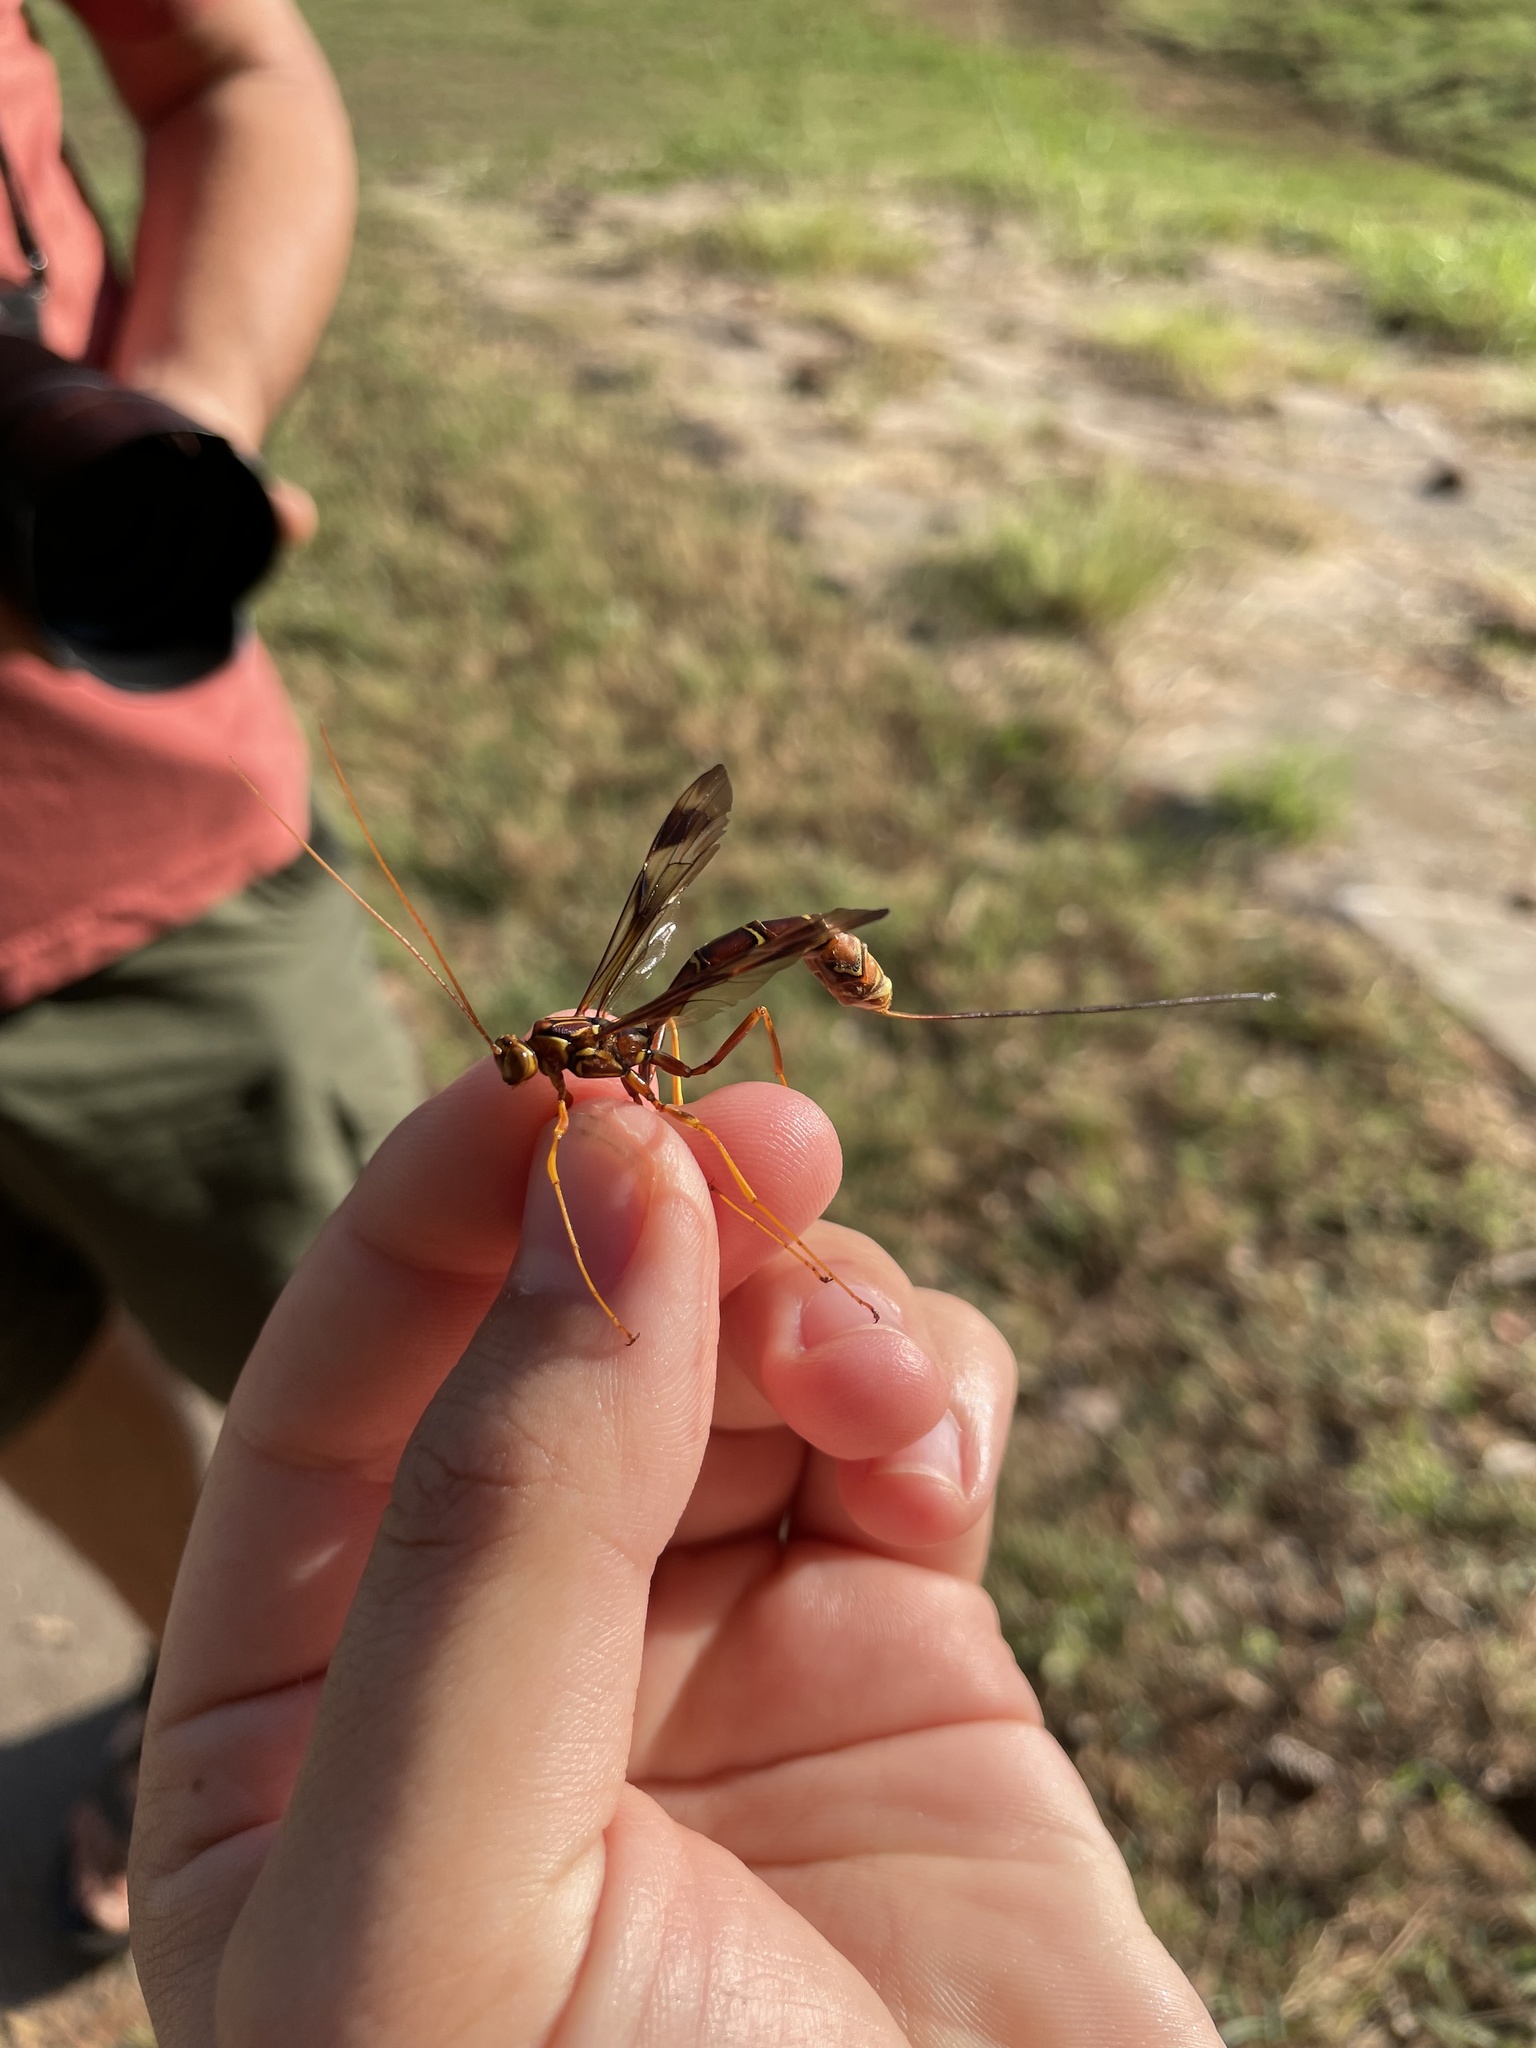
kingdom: Animalia
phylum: Arthropoda
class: Insecta
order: Hymenoptera
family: Ichneumonidae
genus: Megarhyssa
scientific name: Megarhyssa macrura
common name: Long-tailed giant ichneumonid wasp
